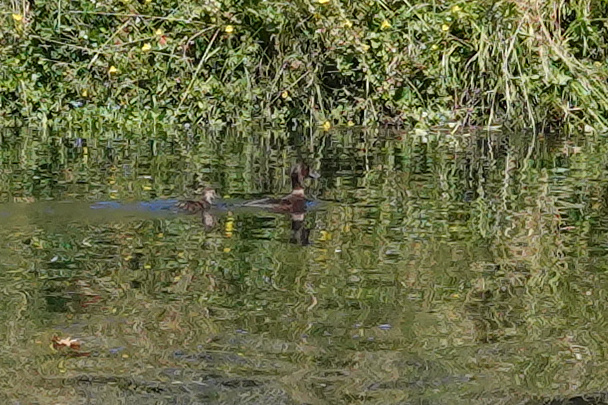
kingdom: Animalia
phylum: Chordata
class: Aves
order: Anseriformes
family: Anatidae
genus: Aythya
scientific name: Aythya novaeseelandiae
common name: New zealand scaup
